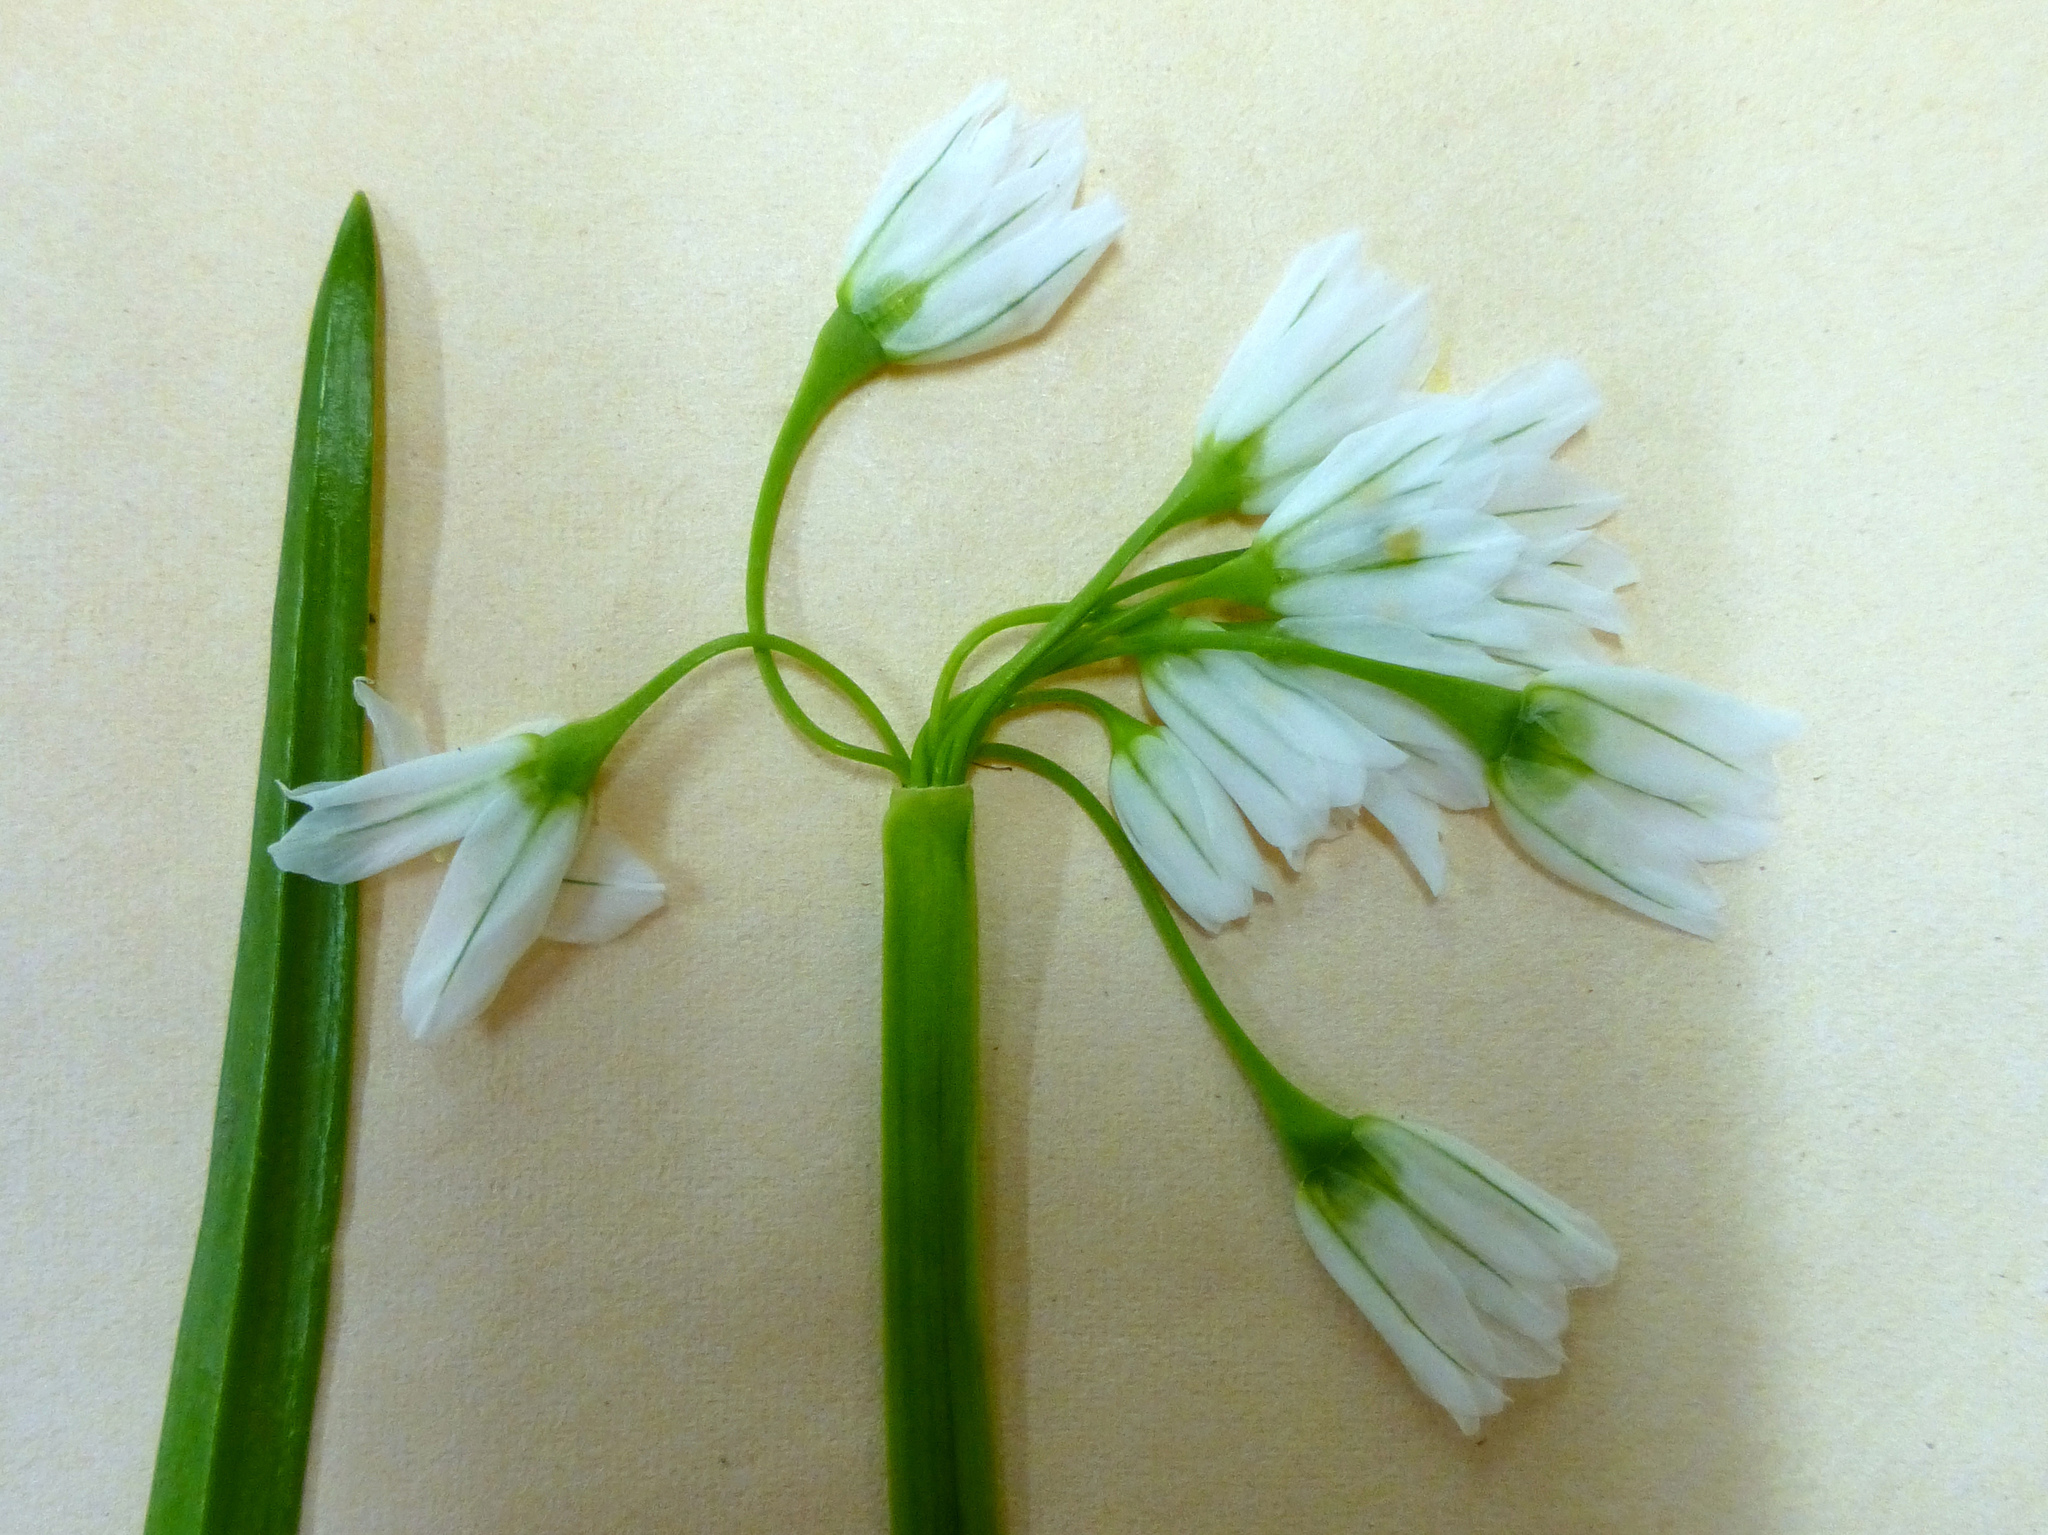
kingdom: Plantae
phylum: Tracheophyta
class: Liliopsida
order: Asparagales
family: Amaryllidaceae
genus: Allium
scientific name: Allium triquetrum
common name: Three-cornered garlic
